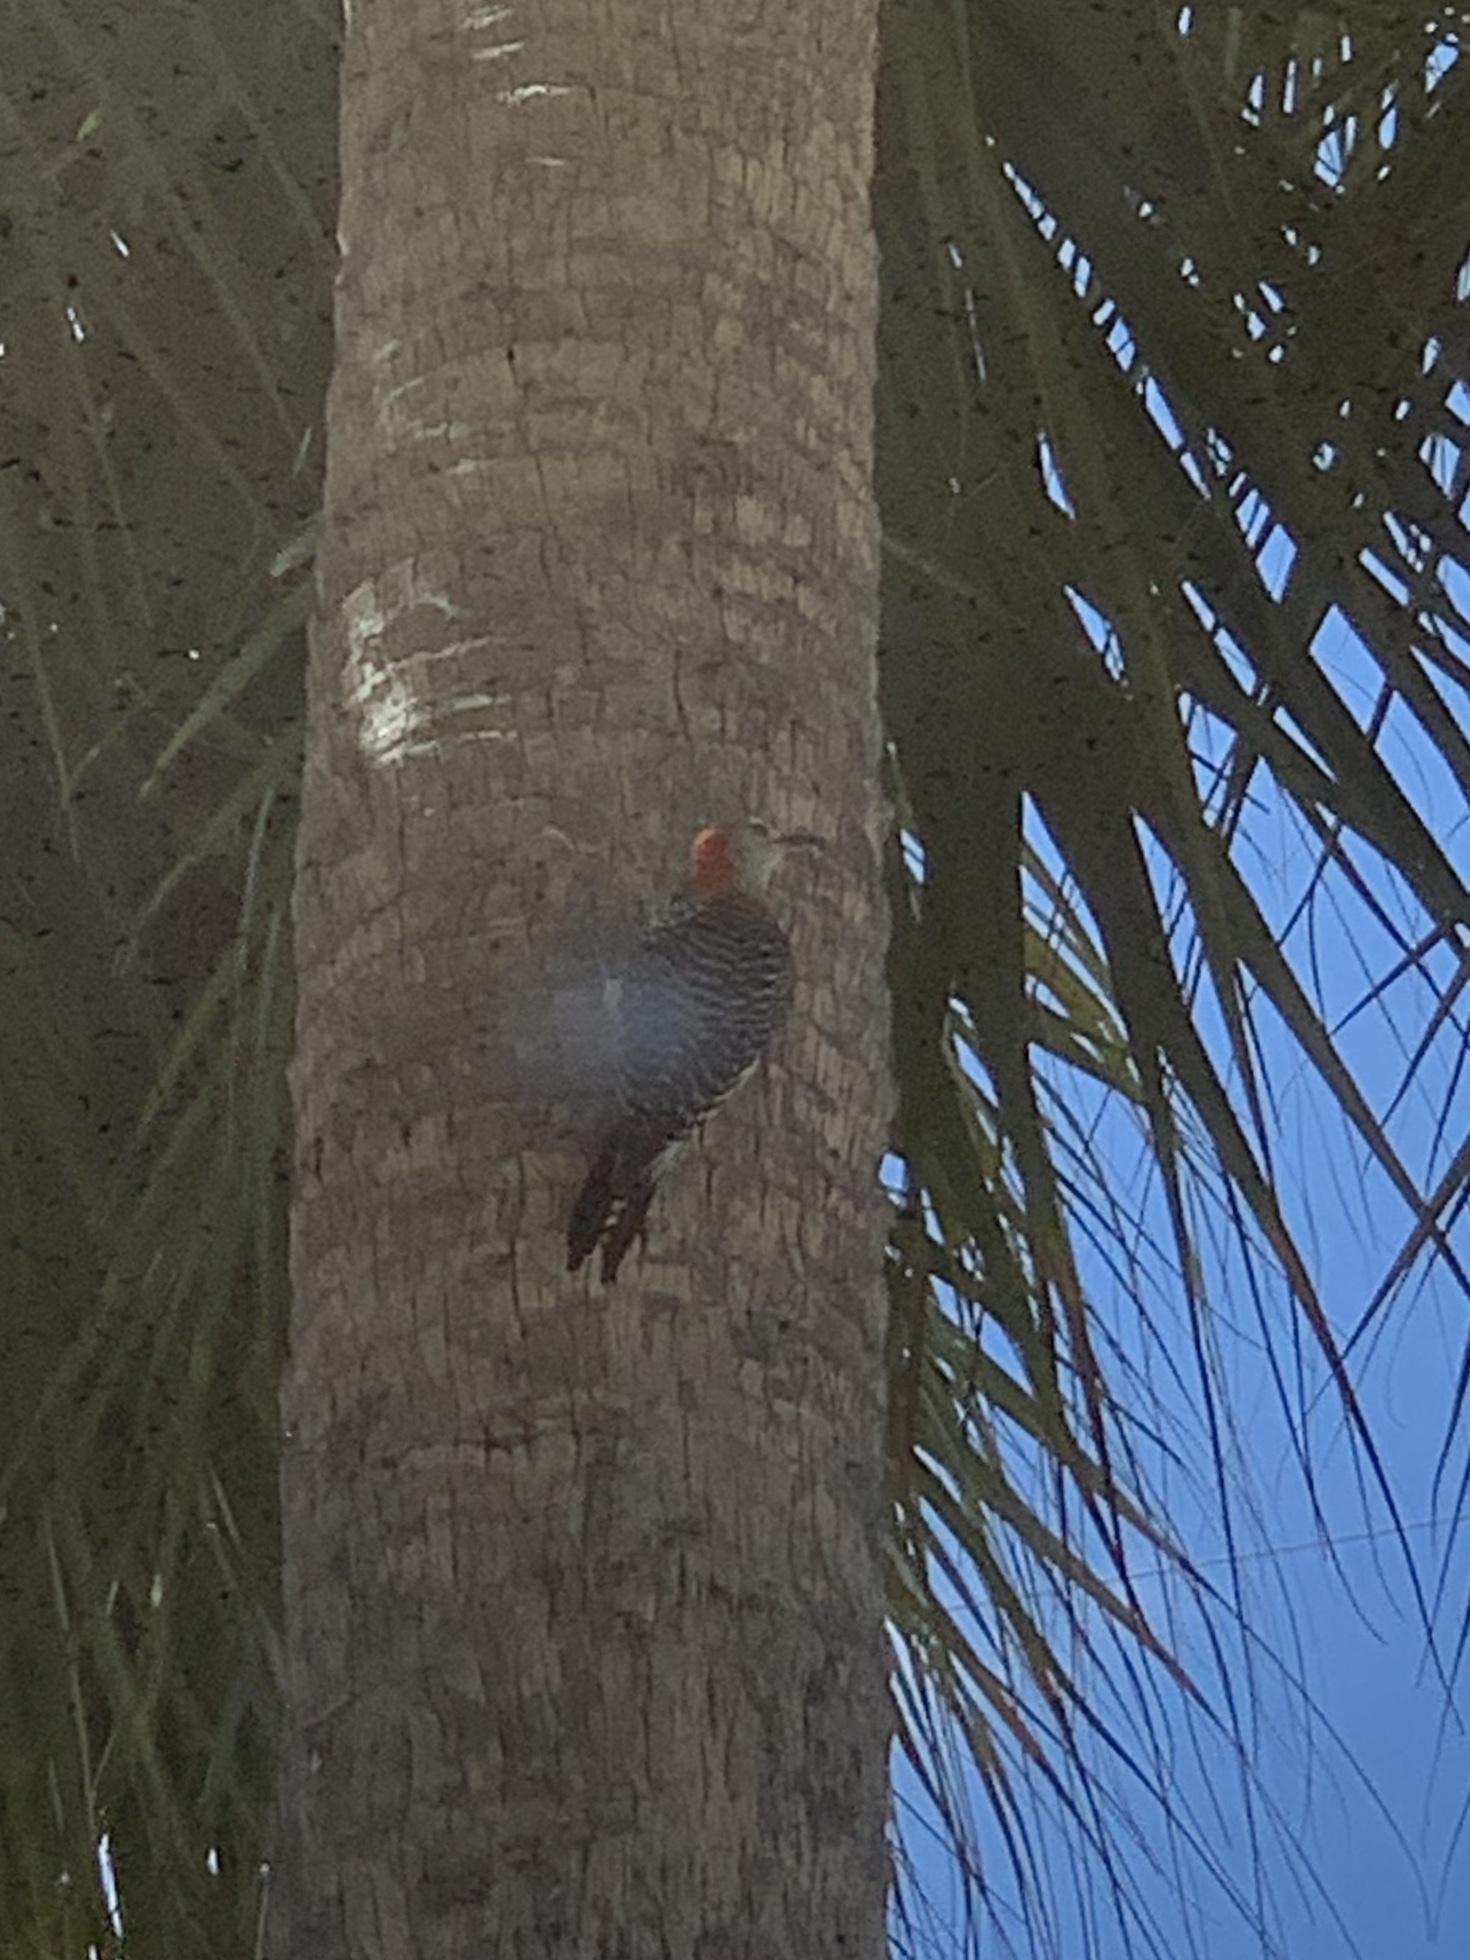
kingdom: Animalia
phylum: Chordata
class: Aves
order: Piciformes
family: Picidae
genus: Melanerpes
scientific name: Melanerpes carolinus
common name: Red-bellied woodpecker
